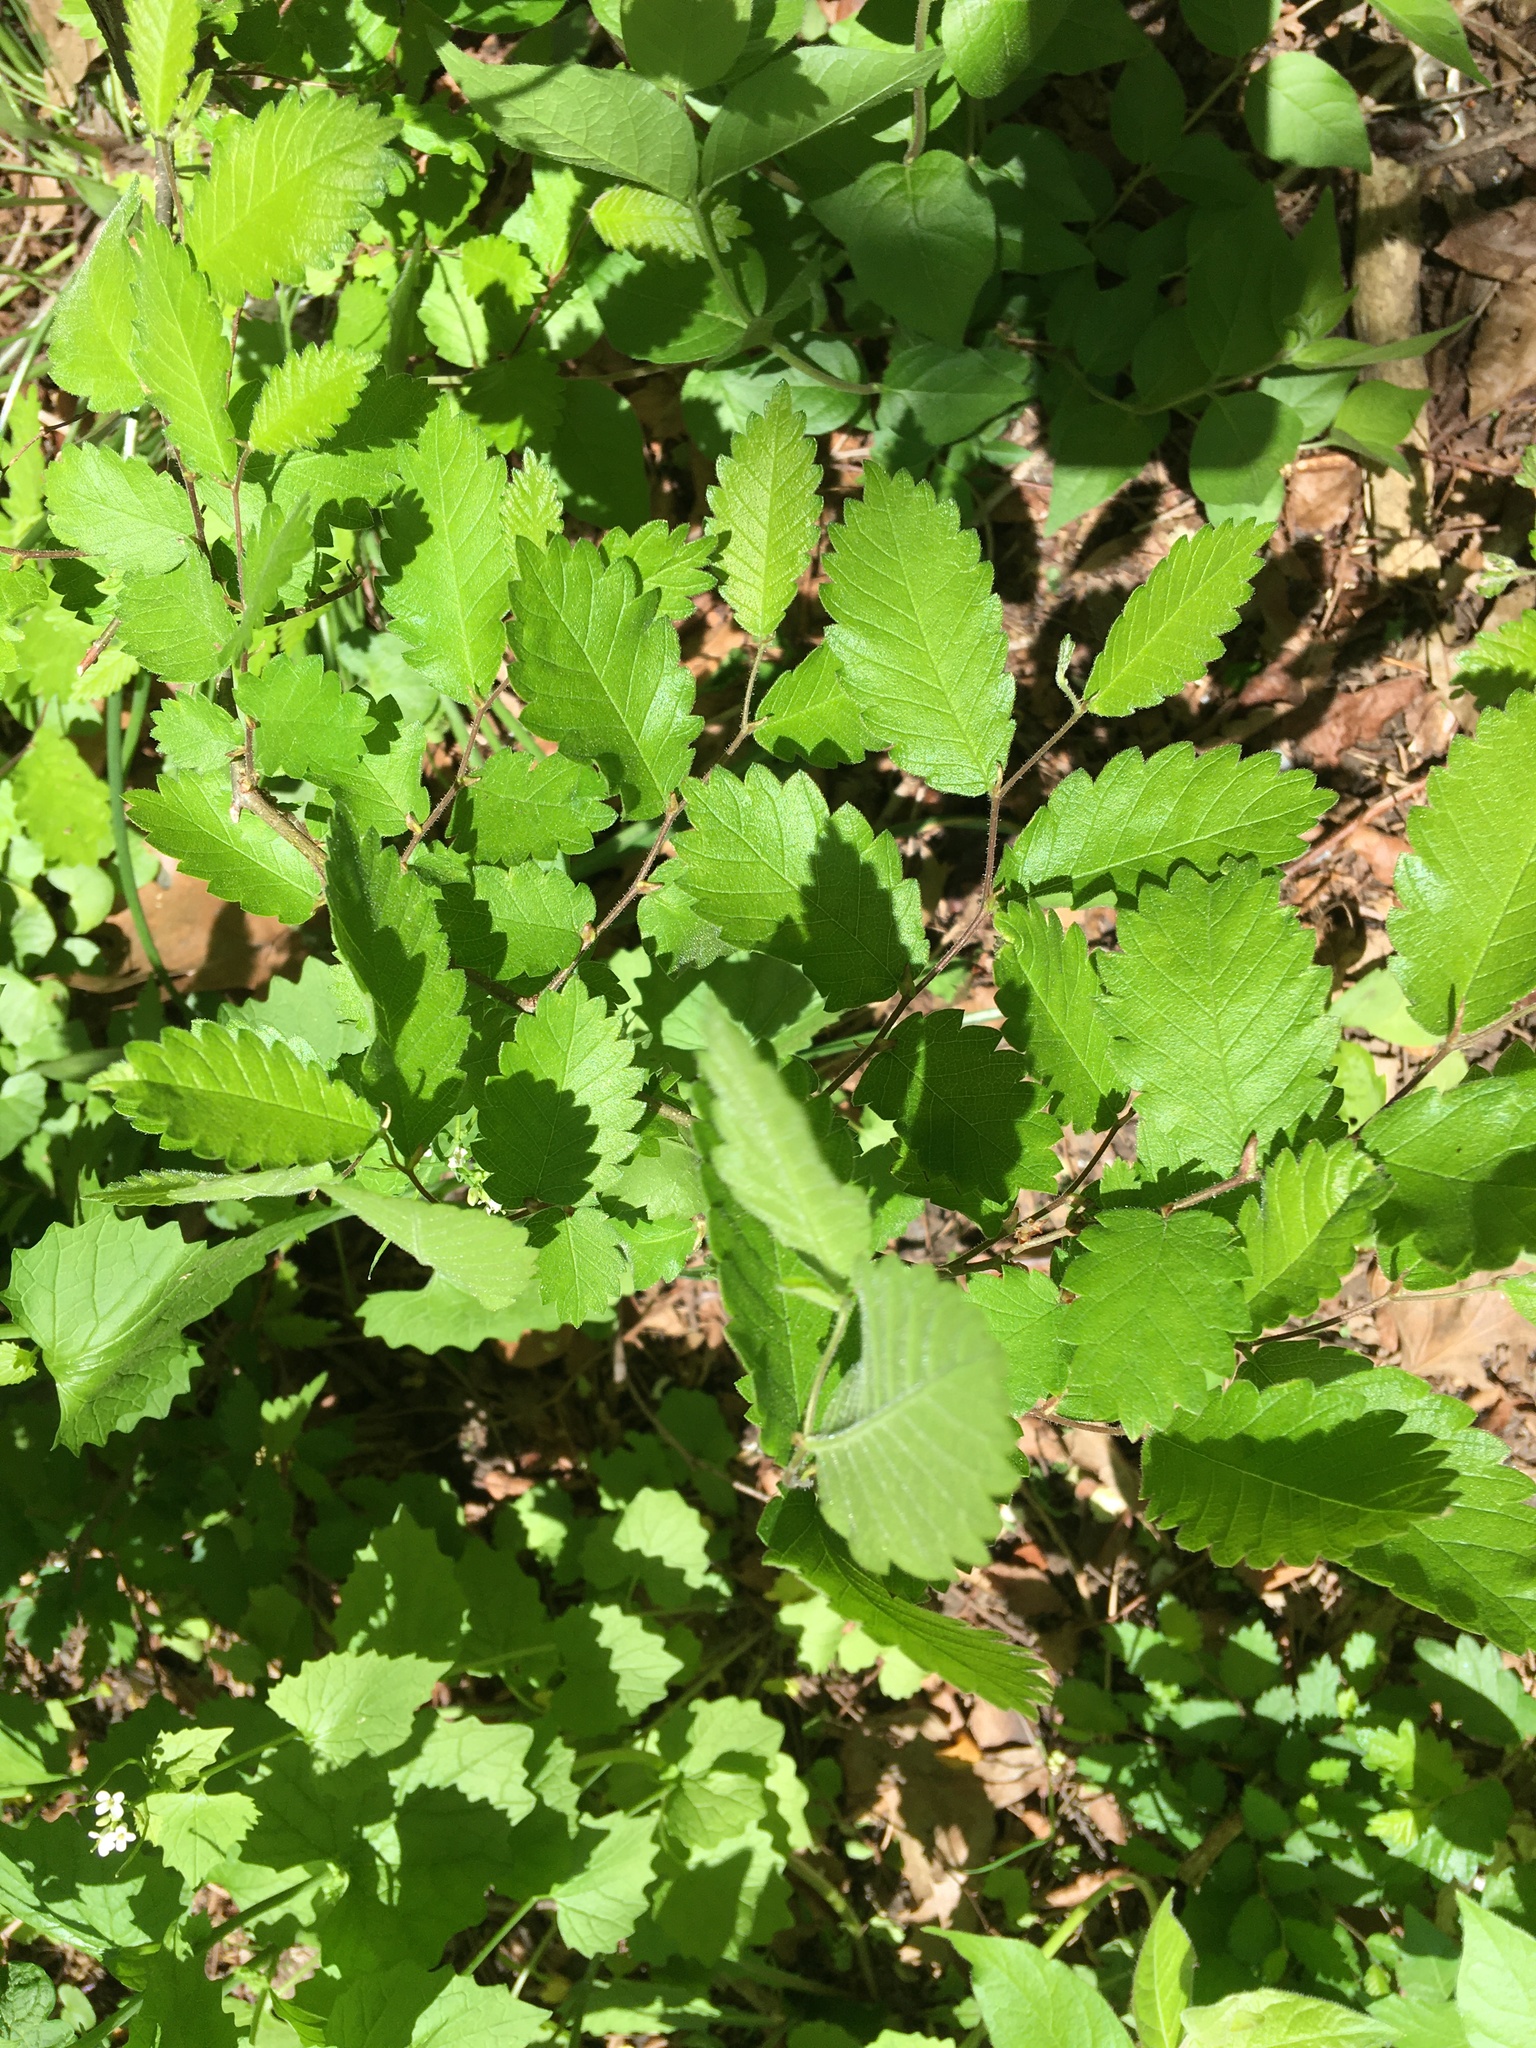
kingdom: Plantae
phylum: Tracheophyta
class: Magnoliopsida
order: Rosales
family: Ulmaceae
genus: Zelkova
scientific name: Zelkova serrata
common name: Japanese zelkova
